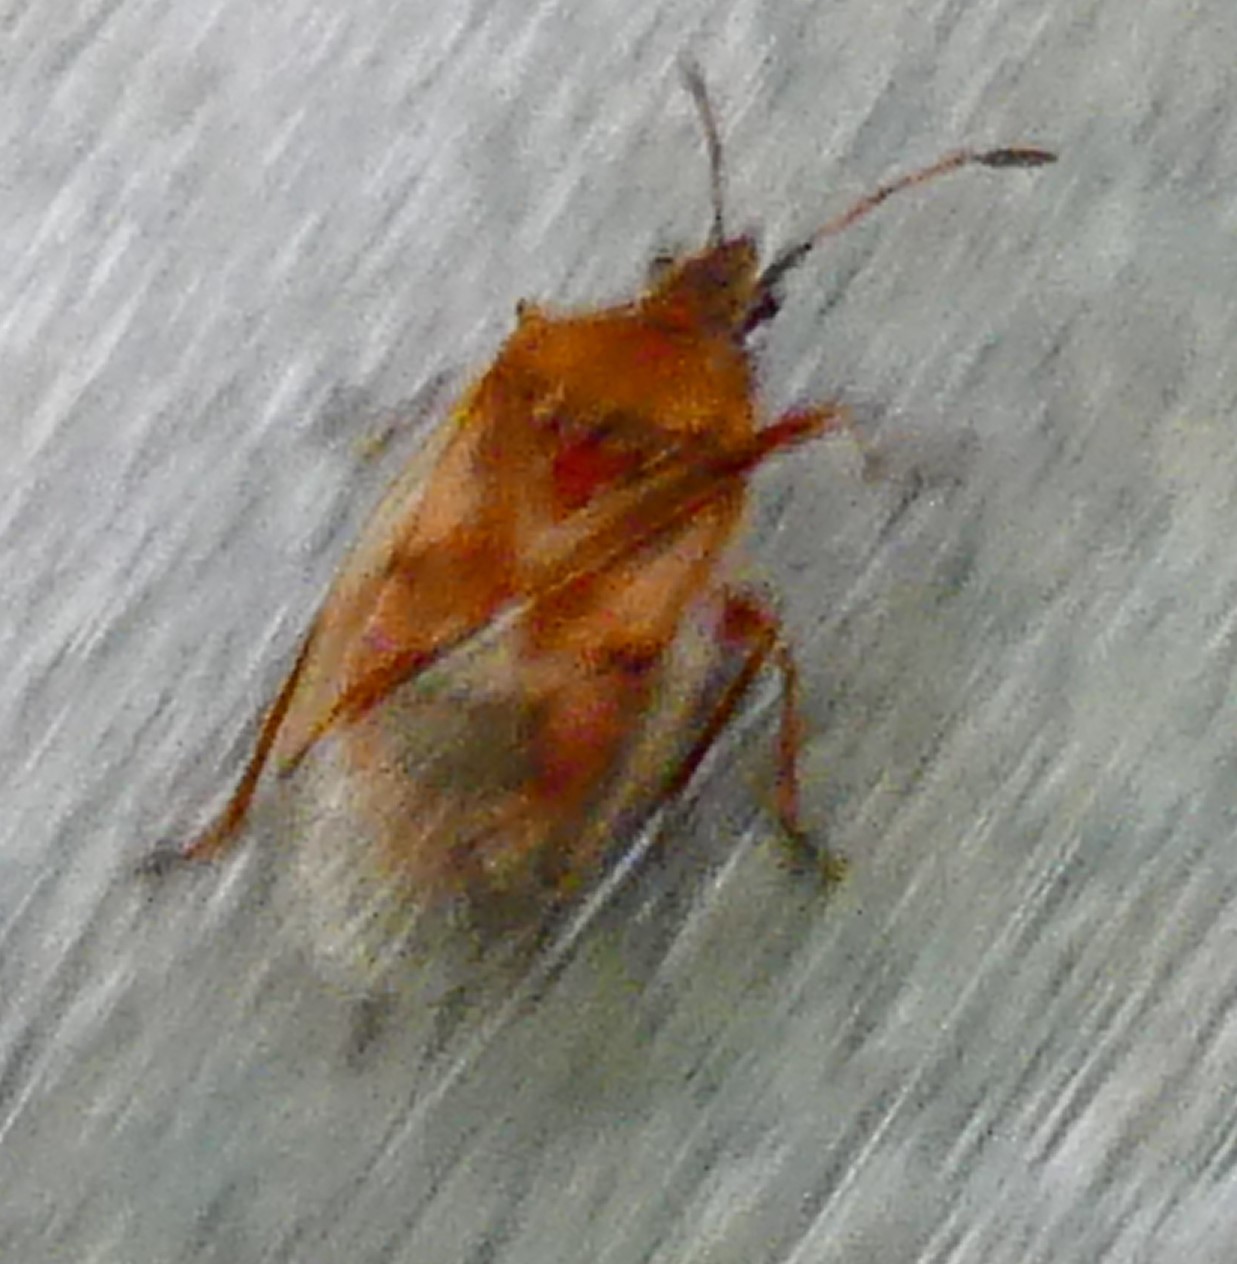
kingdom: Animalia
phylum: Arthropoda
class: Insecta
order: Hemiptera
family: Lygaeidae
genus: Kleidocerys
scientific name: Kleidocerys resedae
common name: Birch catkin bug
